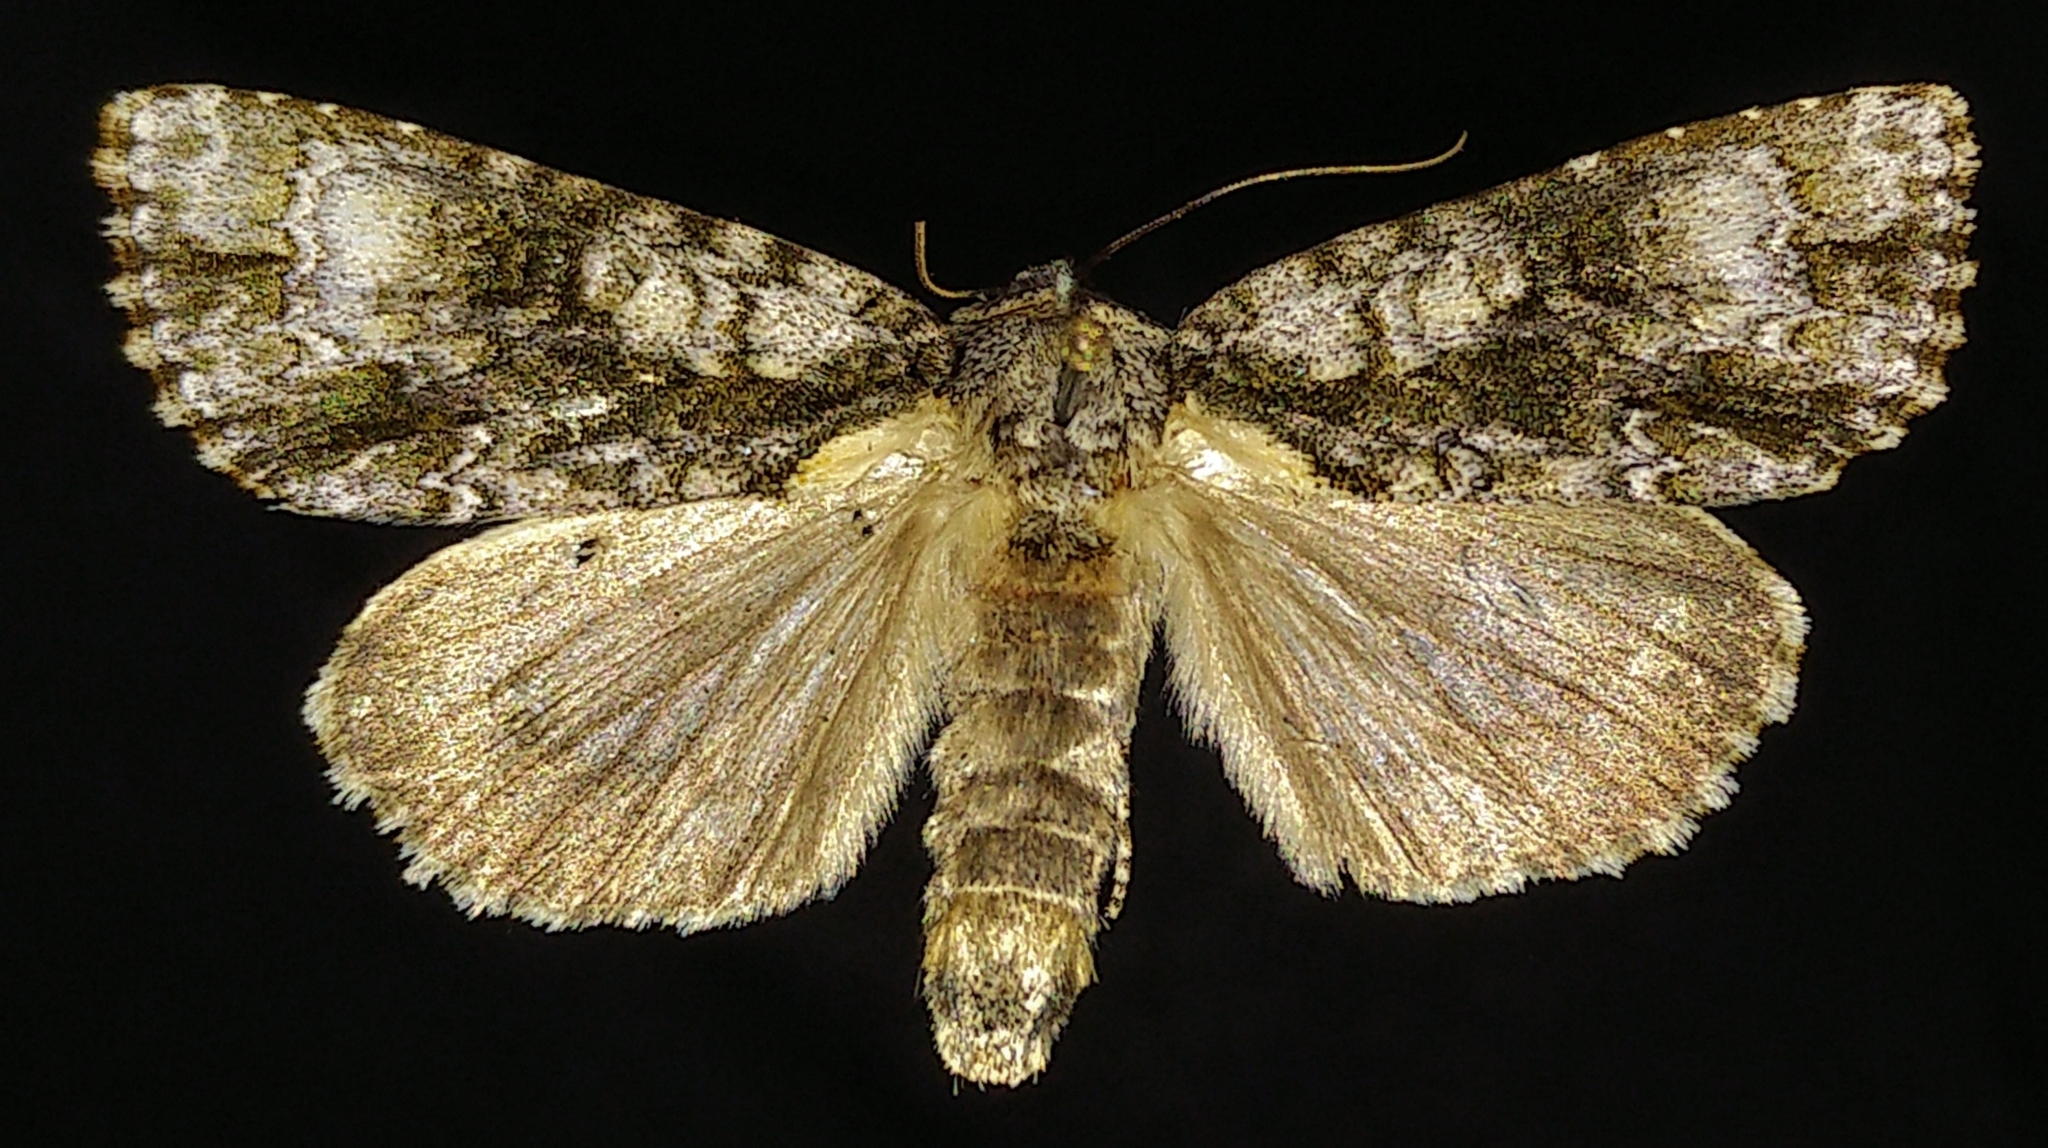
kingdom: Animalia
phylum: Arthropoda
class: Insecta
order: Lepidoptera
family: Noctuidae
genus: Acronicta
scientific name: Acronicta superans
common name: Splendid dagger
